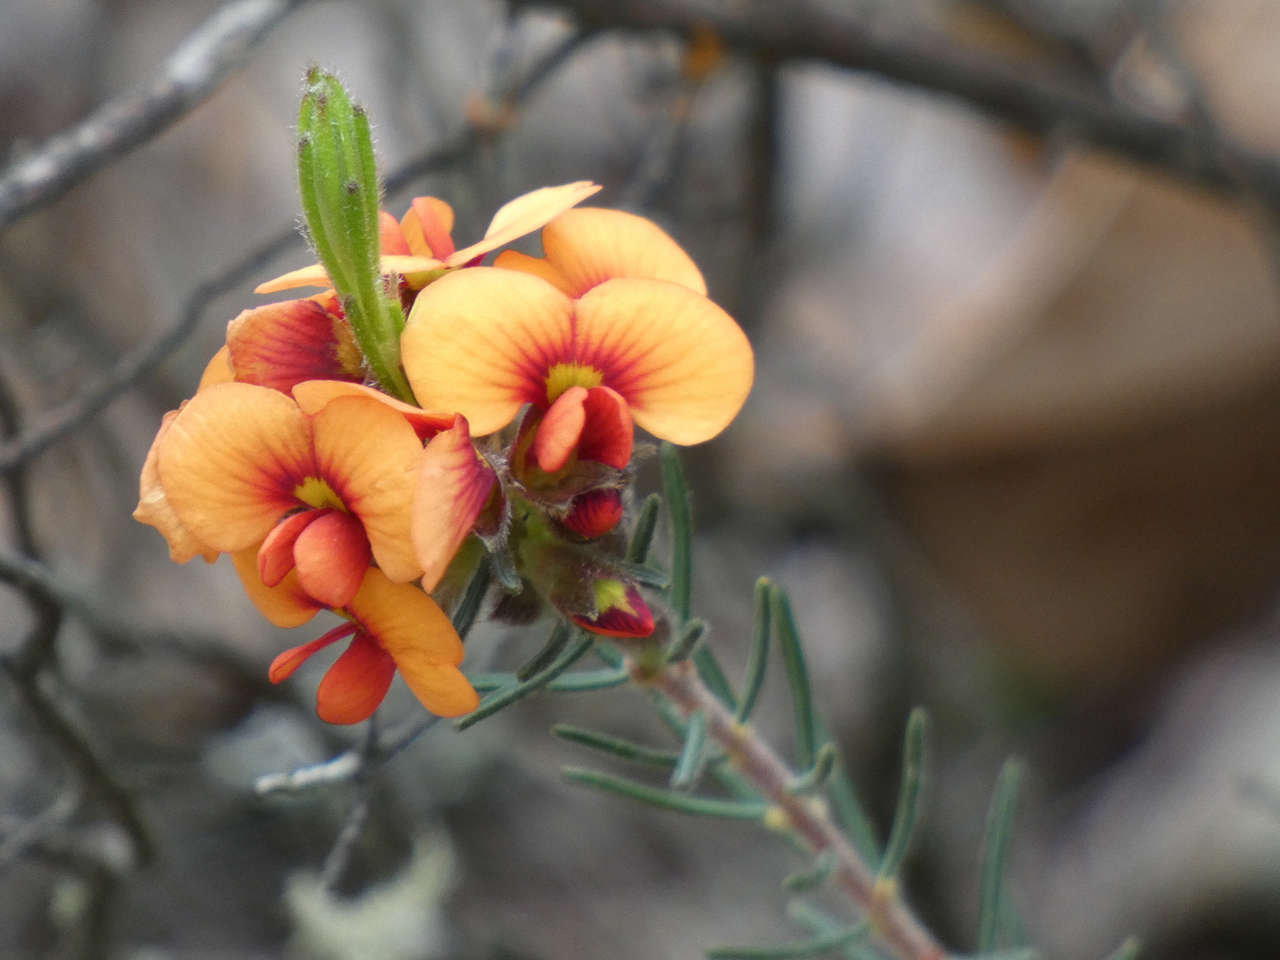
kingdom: Plantae
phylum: Tracheophyta
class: Magnoliopsida
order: Fabales
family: Fabaceae
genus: Dillwynia
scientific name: Dillwynia cinerascens
